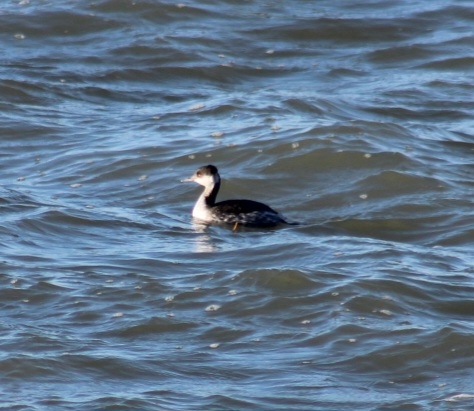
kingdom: Animalia
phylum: Chordata
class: Aves
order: Podicipediformes
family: Podicipedidae
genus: Podiceps
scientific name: Podiceps auritus
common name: Horned grebe
